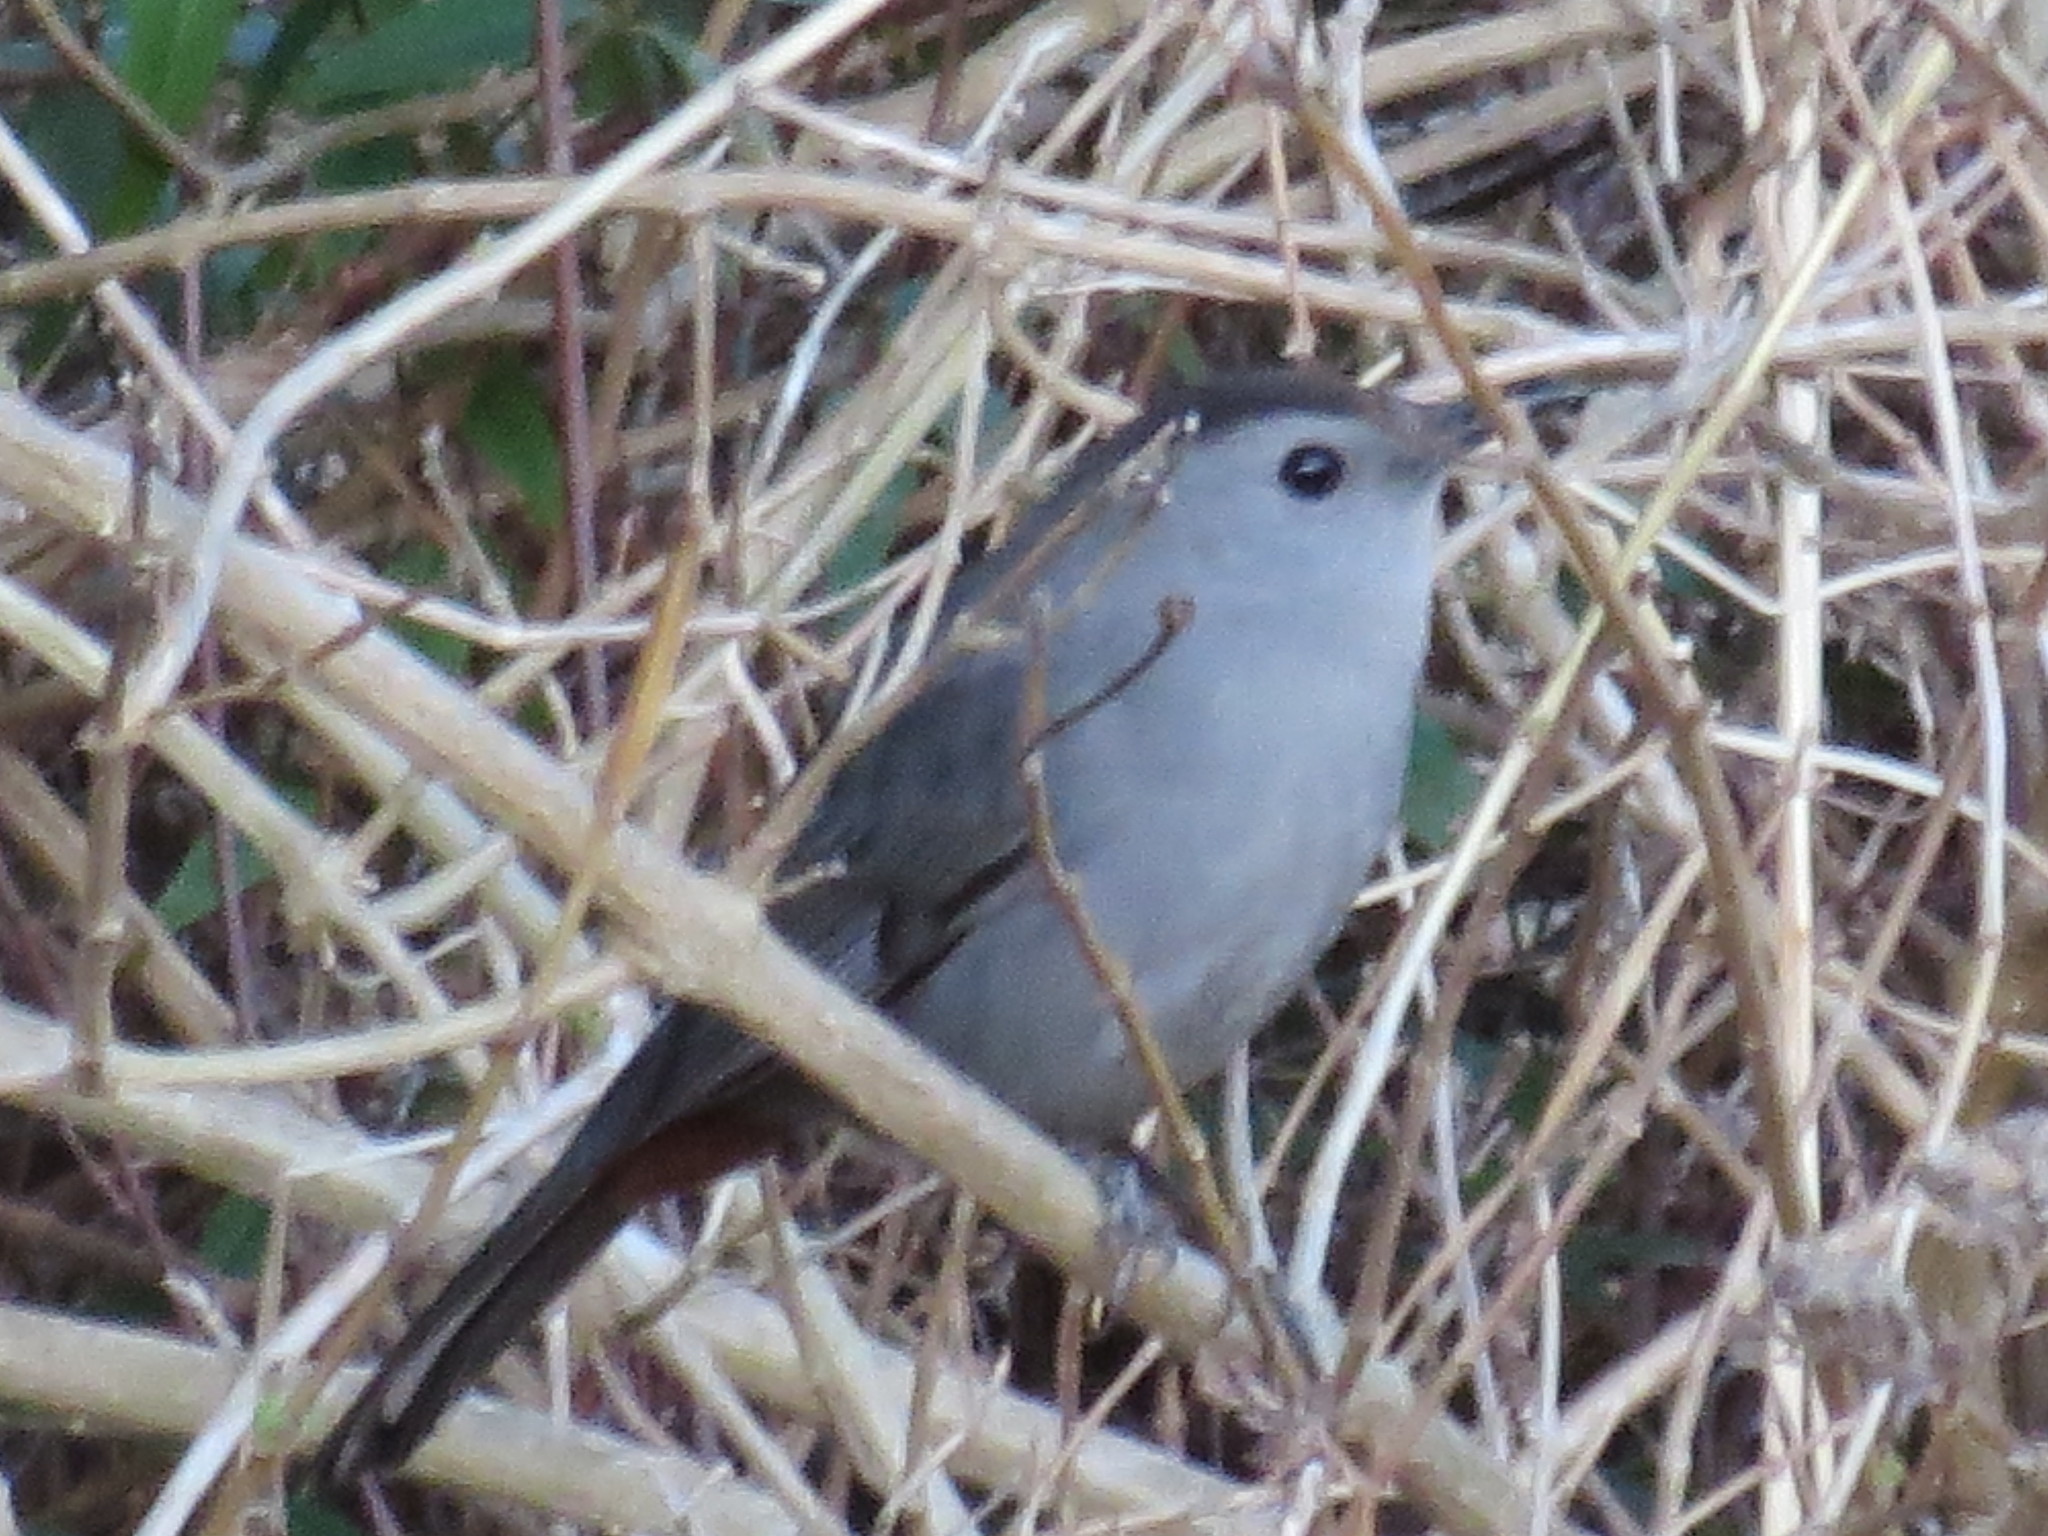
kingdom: Animalia
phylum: Chordata
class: Aves
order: Passeriformes
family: Mimidae
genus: Dumetella
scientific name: Dumetella carolinensis
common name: Gray catbird
